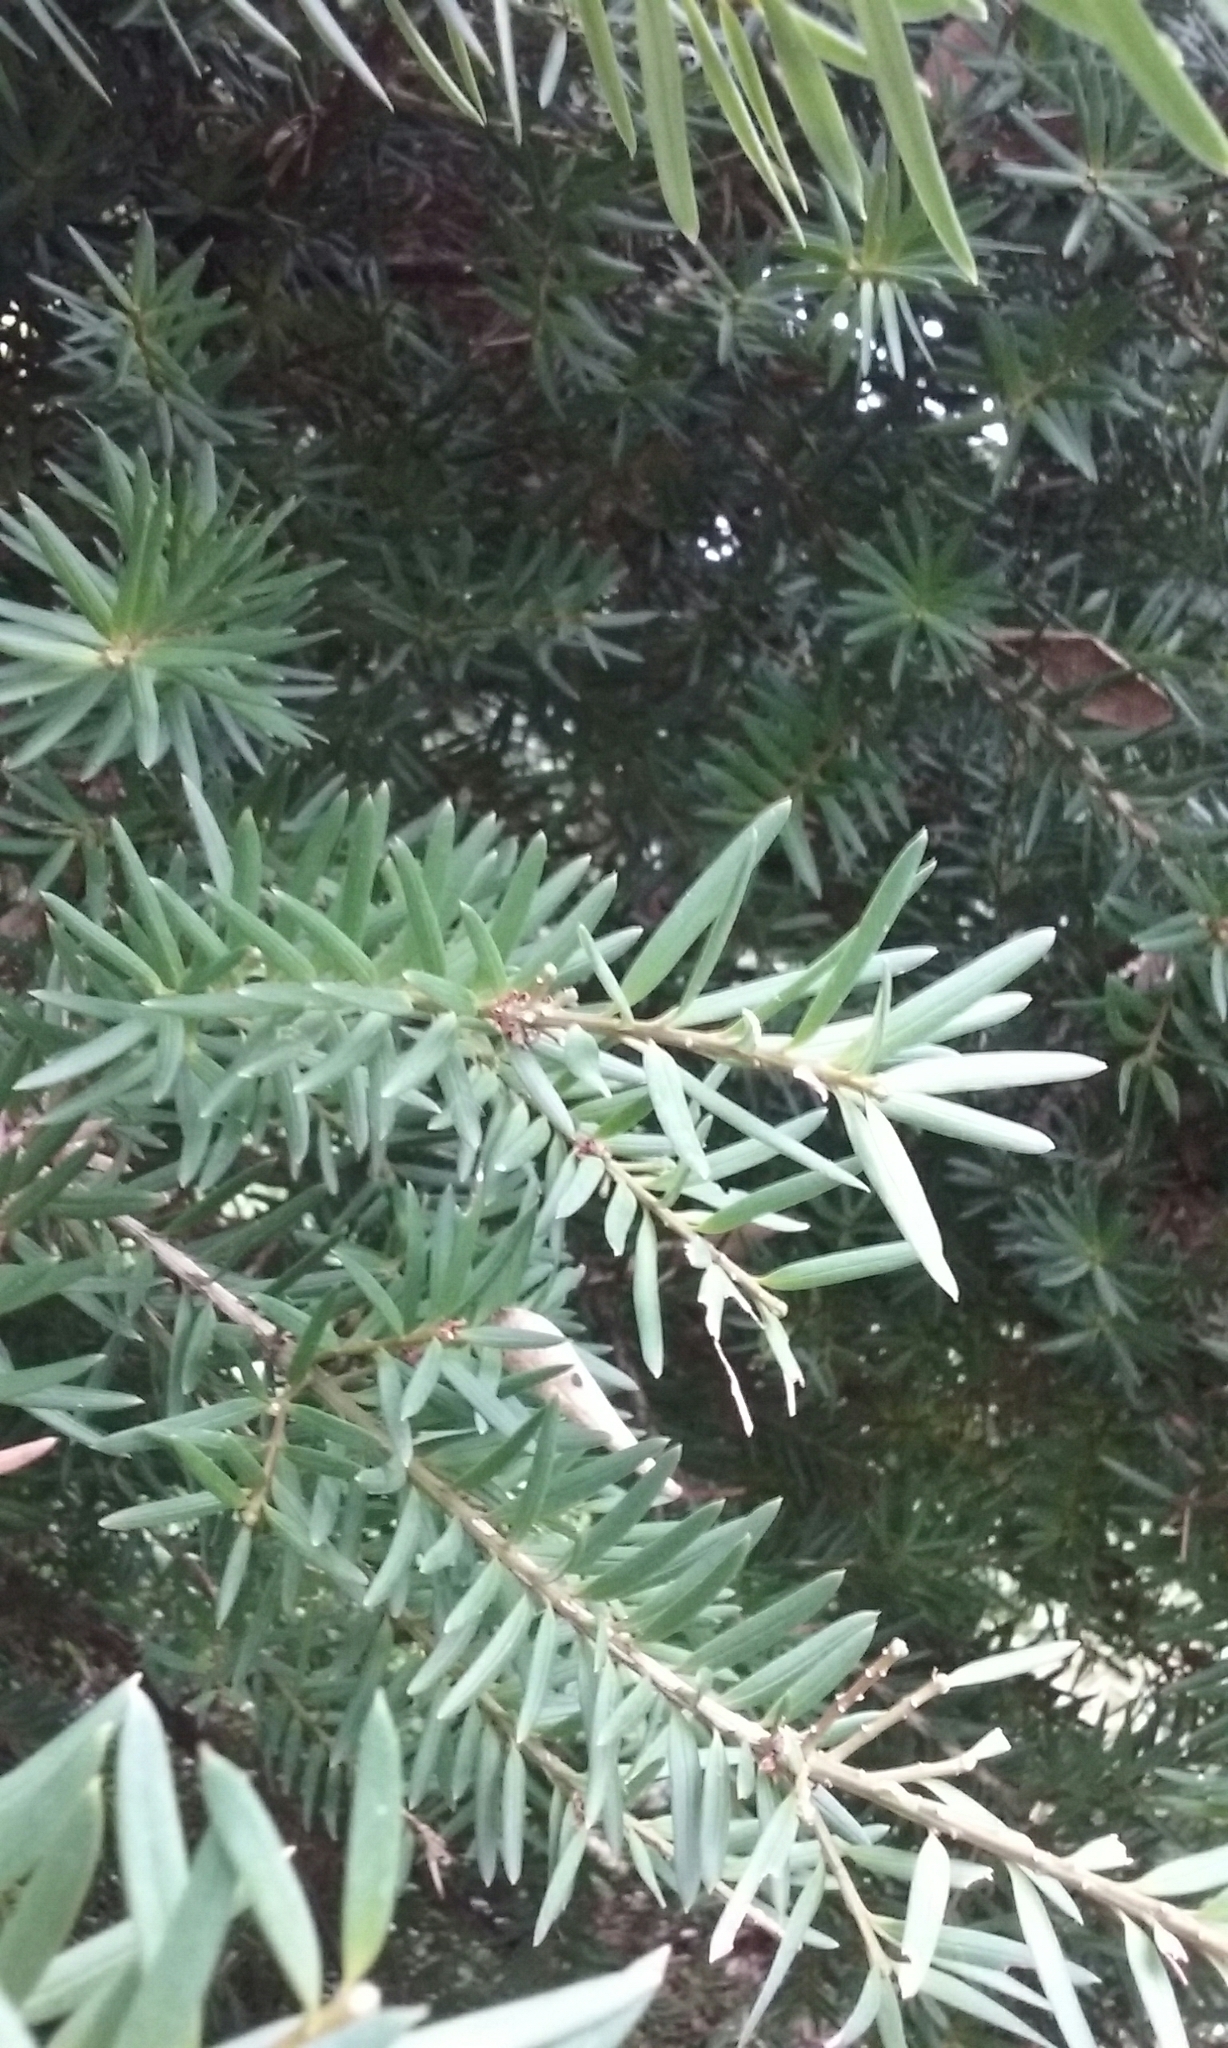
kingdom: Plantae
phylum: Tracheophyta
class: Pinopsida
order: Pinales
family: Podocarpaceae
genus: Podocarpus
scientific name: Podocarpus totara
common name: Totara
